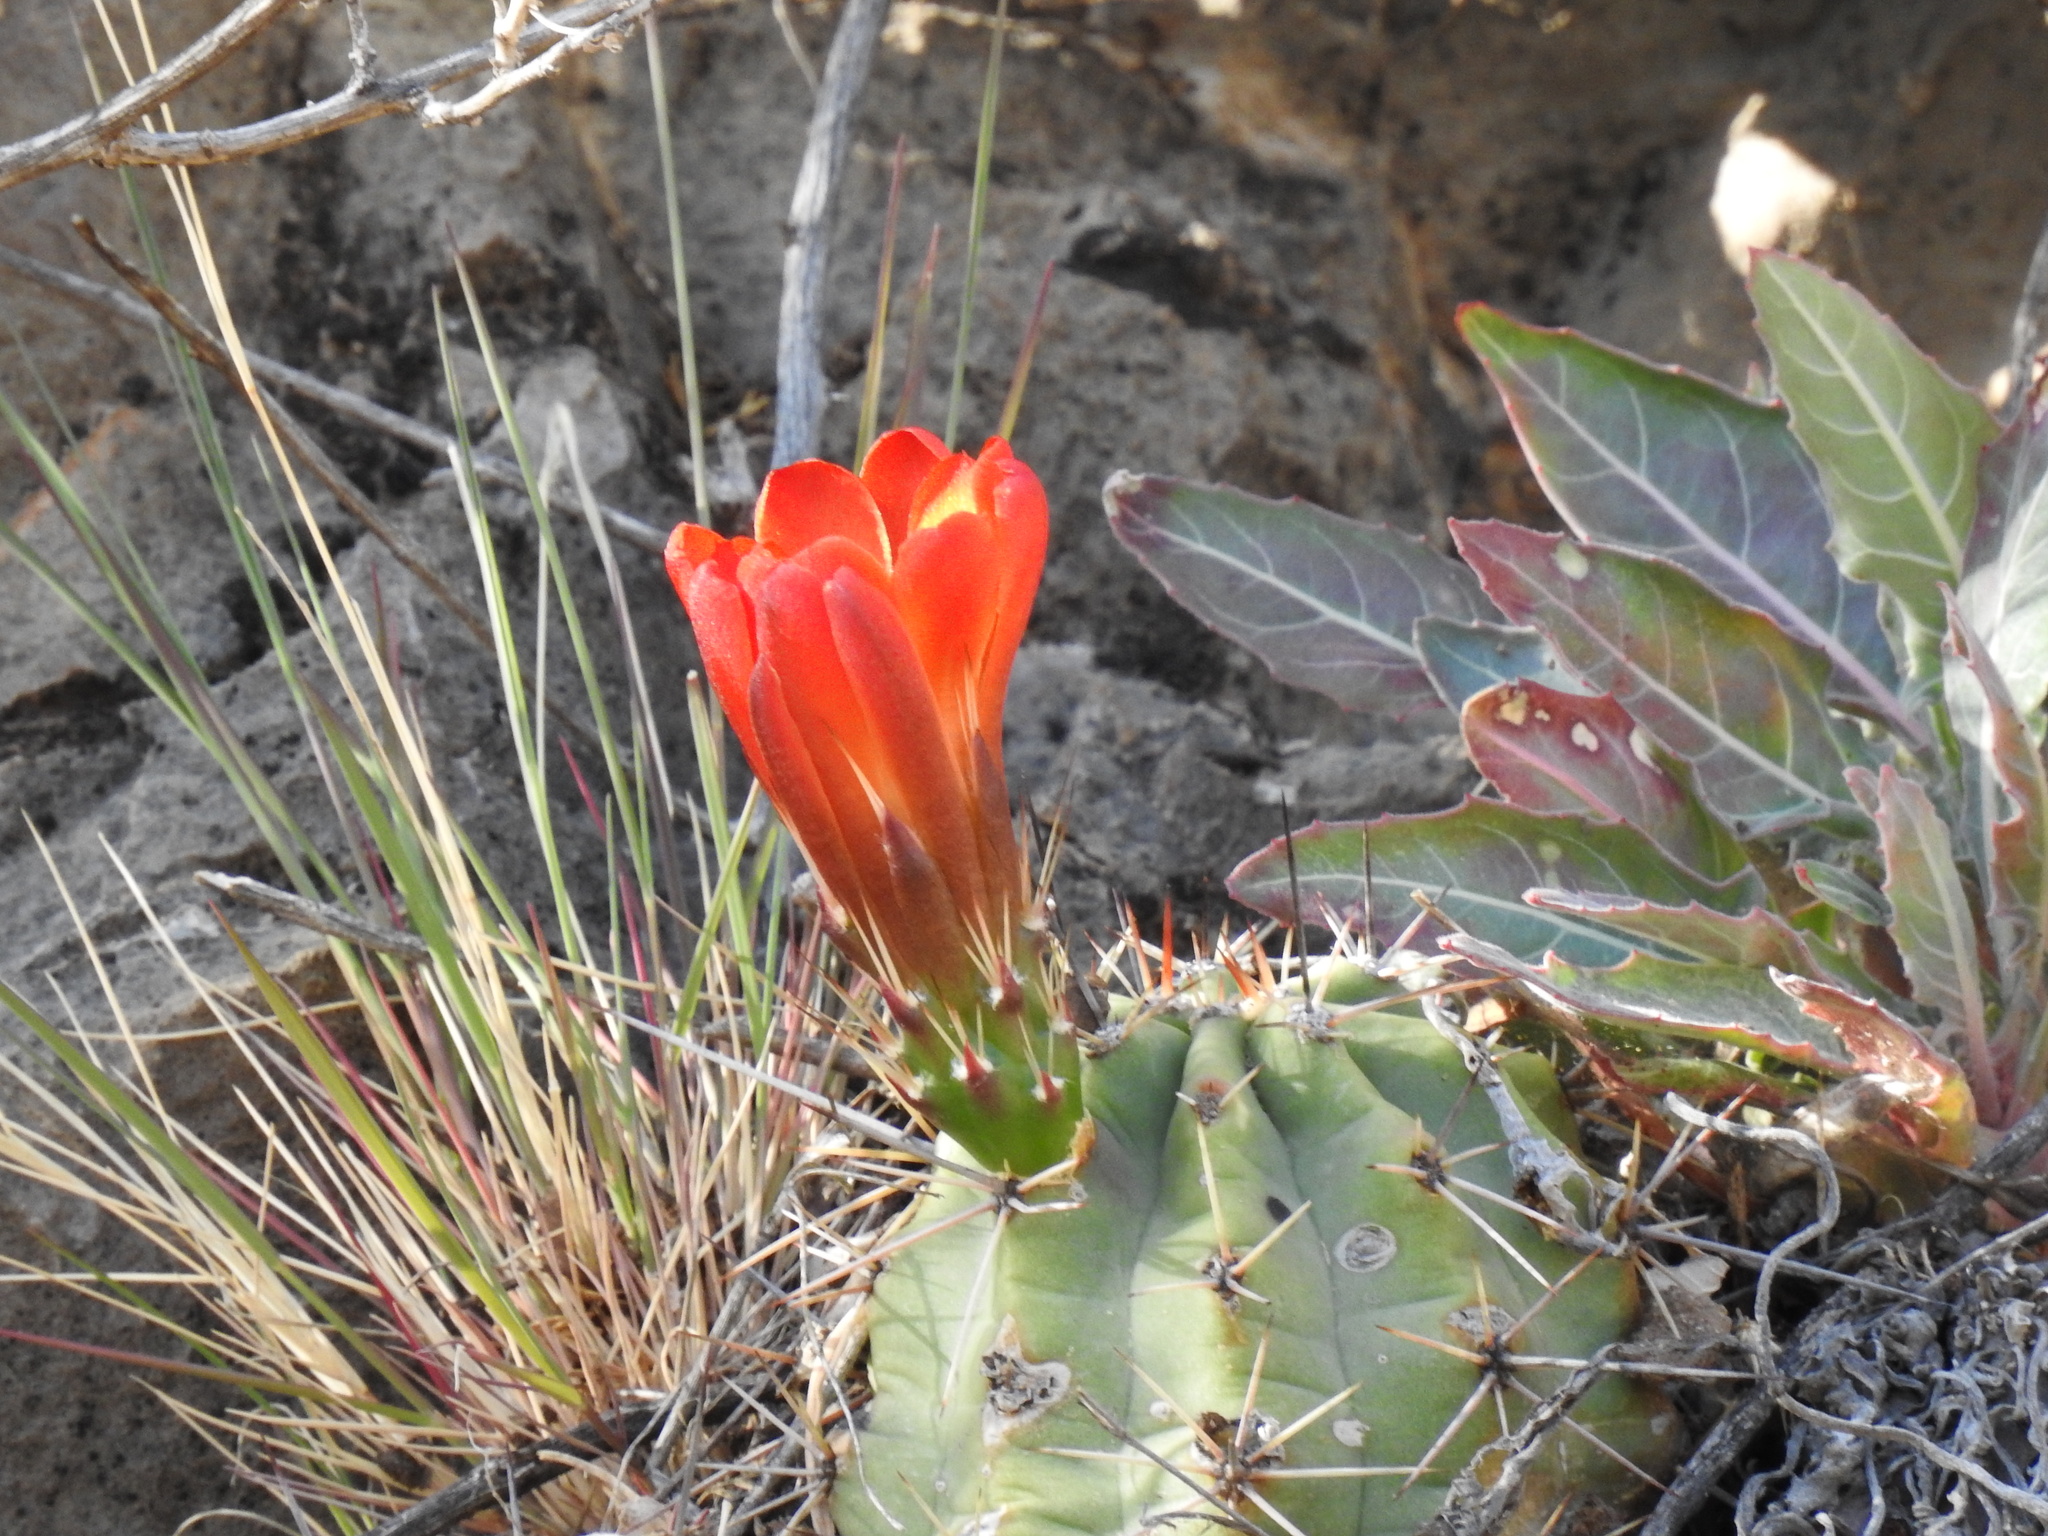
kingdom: Plantae
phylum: Tracheophyta
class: Magnoliopsida
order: Caryophyllales
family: Cactaceae
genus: Echinocereus
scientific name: Echinocereus coccineus
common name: Scarlet hedgehog cactus
